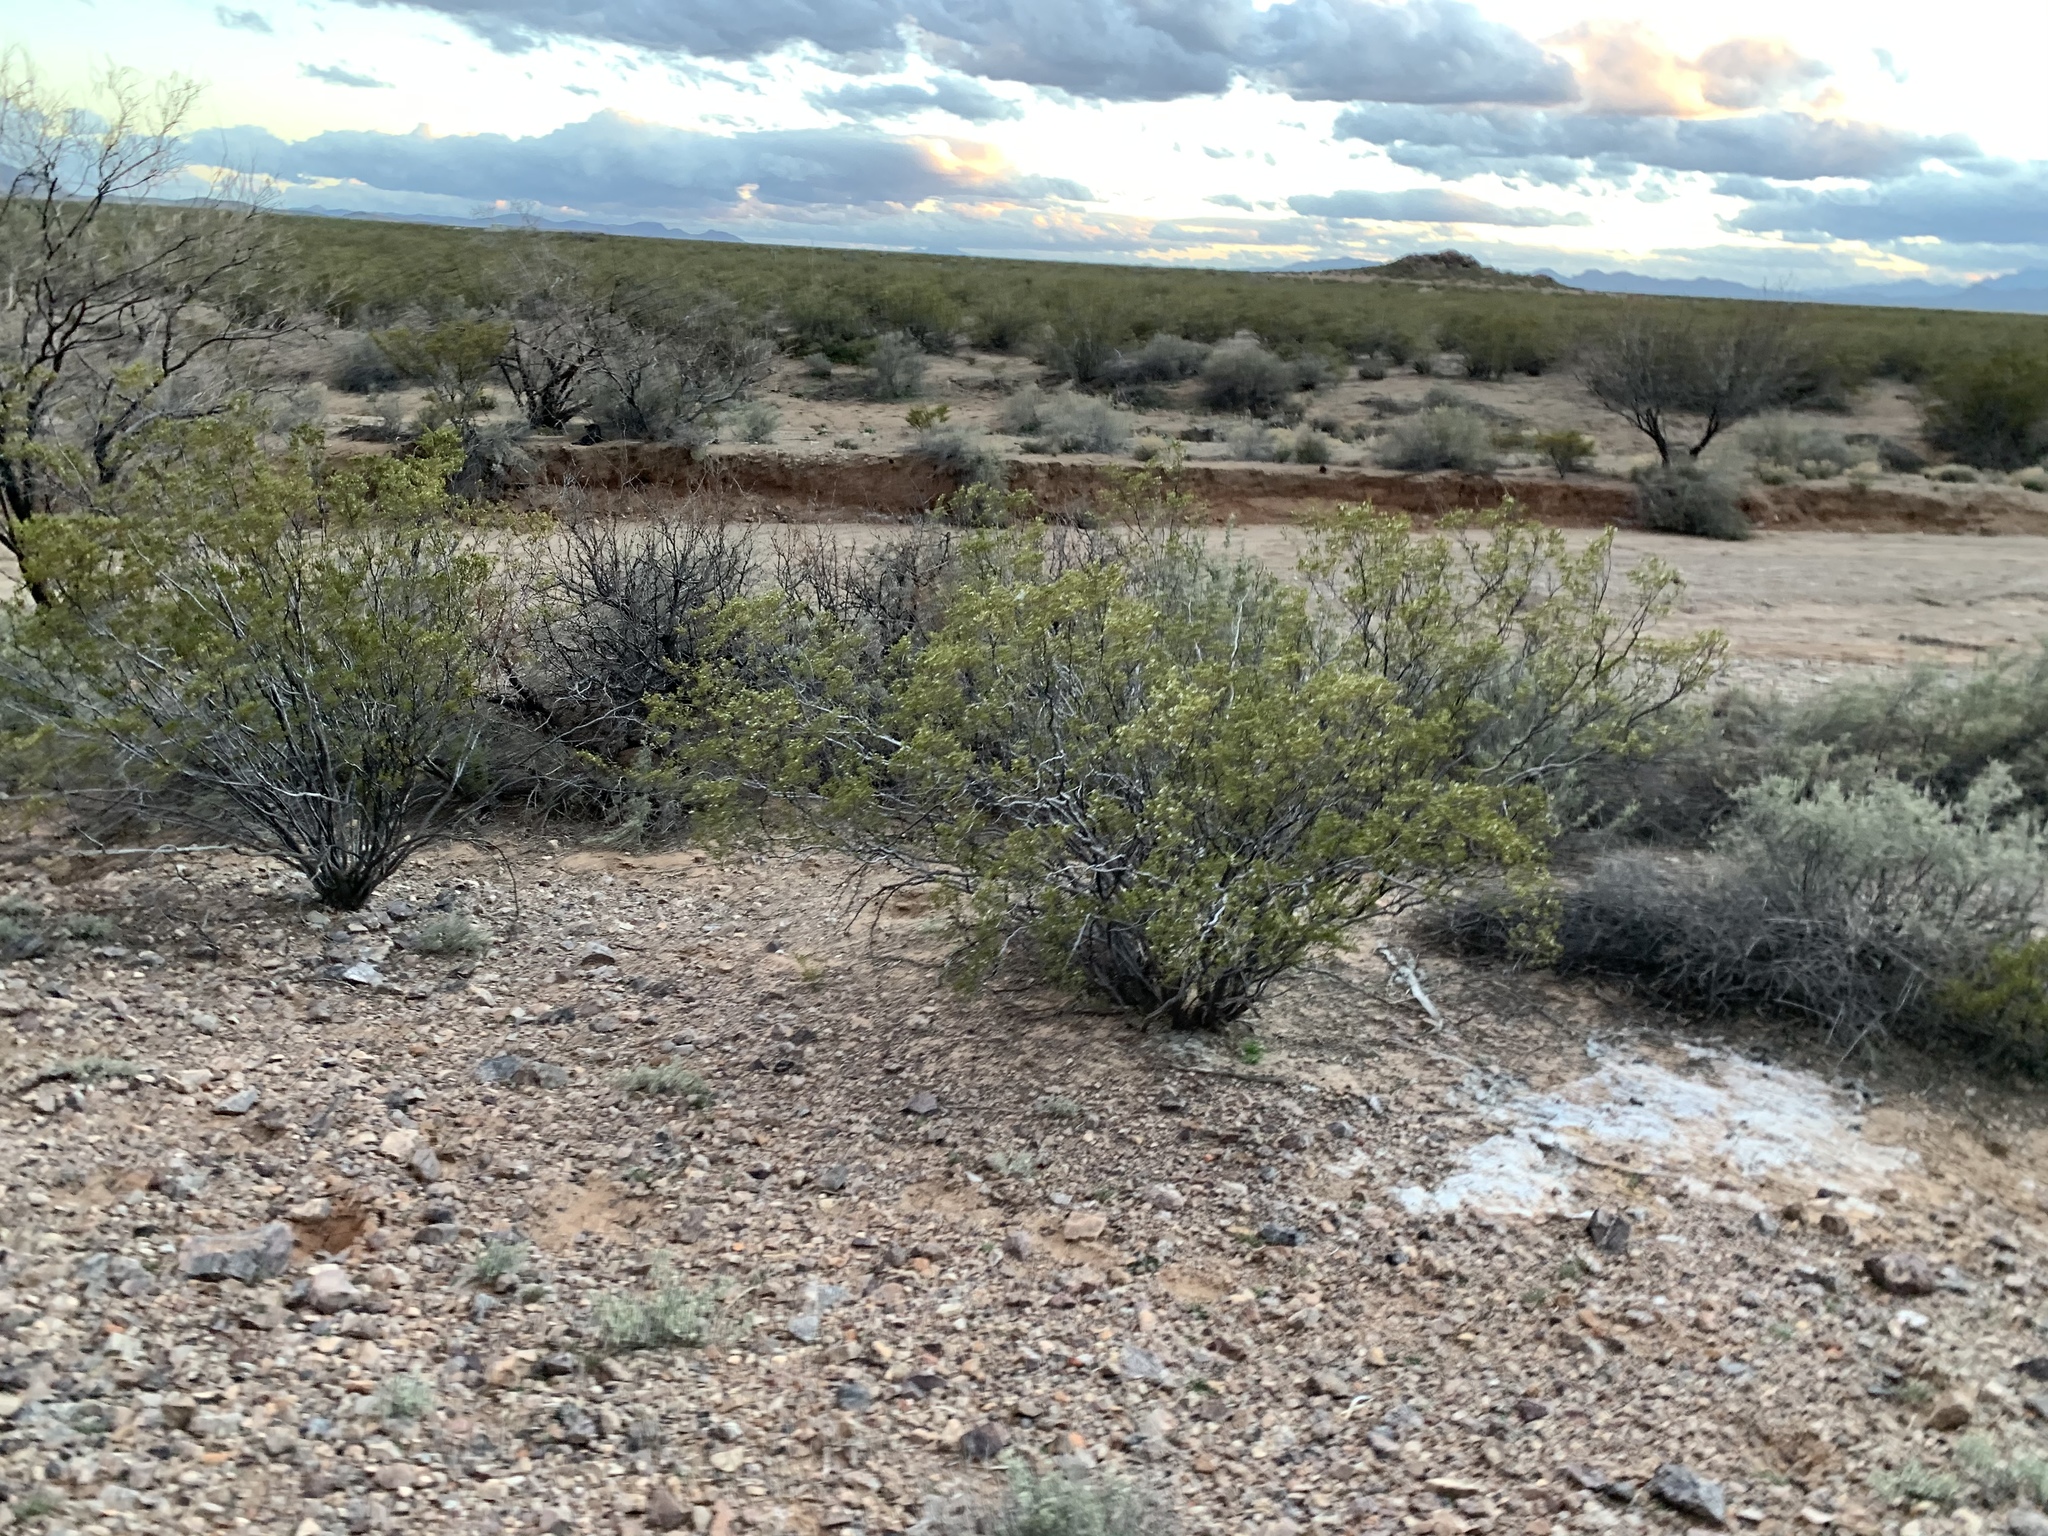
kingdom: Plantae
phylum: Tracheophyta
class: Magnoliopsida
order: Zygophyllales
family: Zygophyllaceae
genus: Larrea
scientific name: Larrea tridentata
